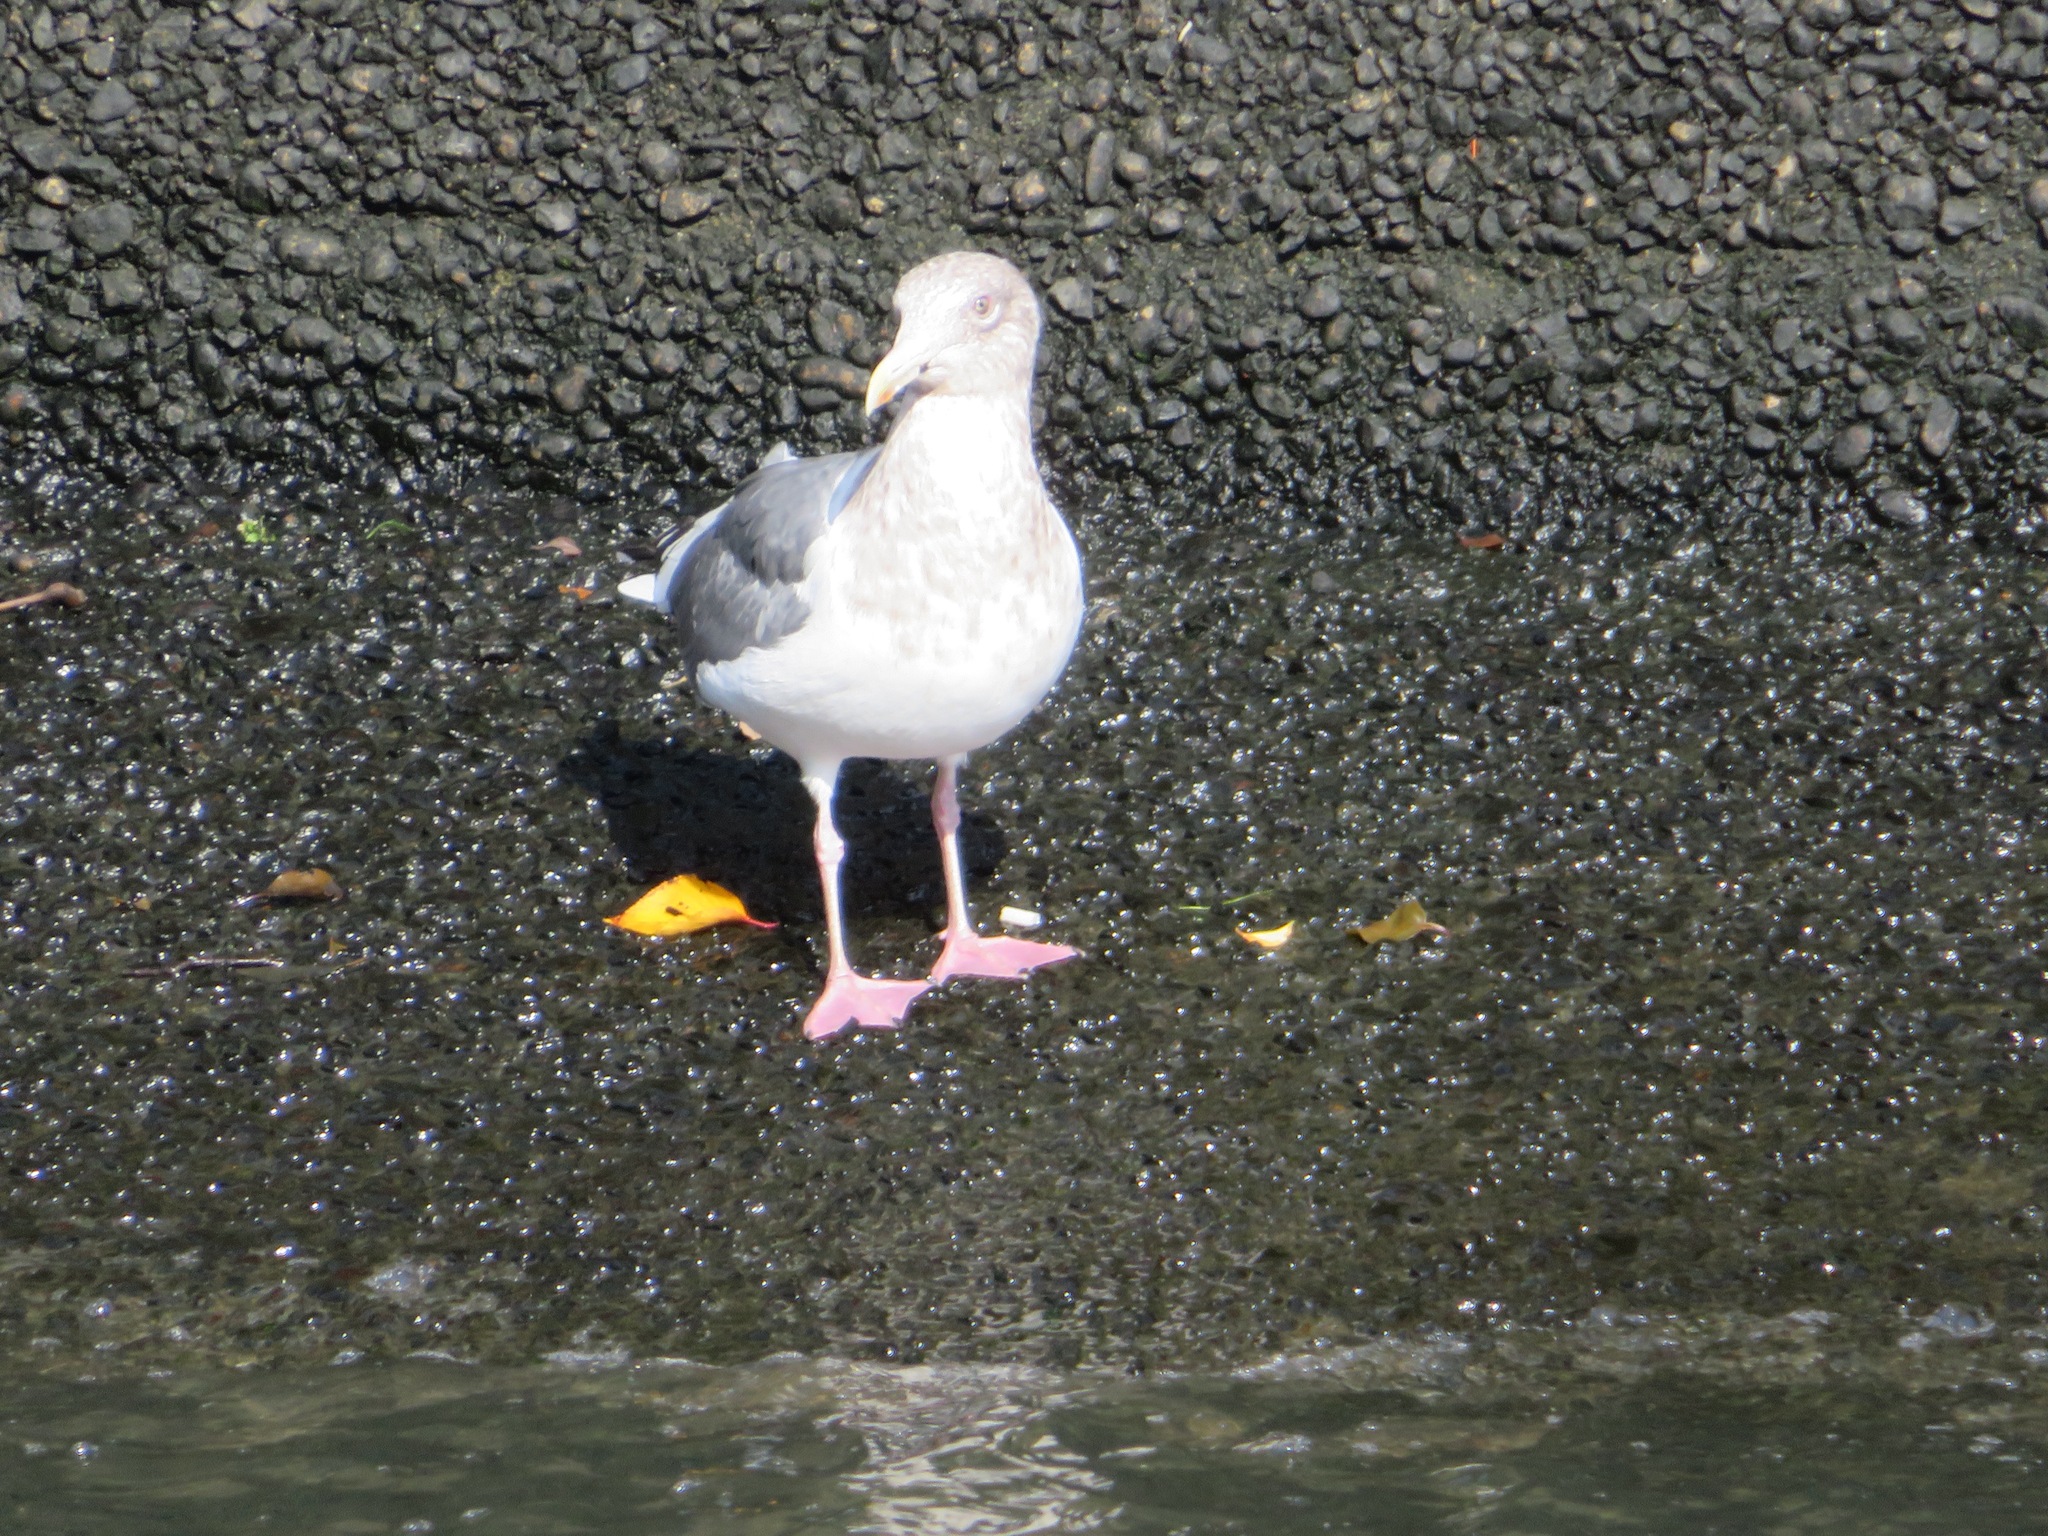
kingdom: Animalia
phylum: Chordata
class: Aves
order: Charadriiformes
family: Laridae
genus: Larus
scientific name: Larus vegae
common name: Vega gull
